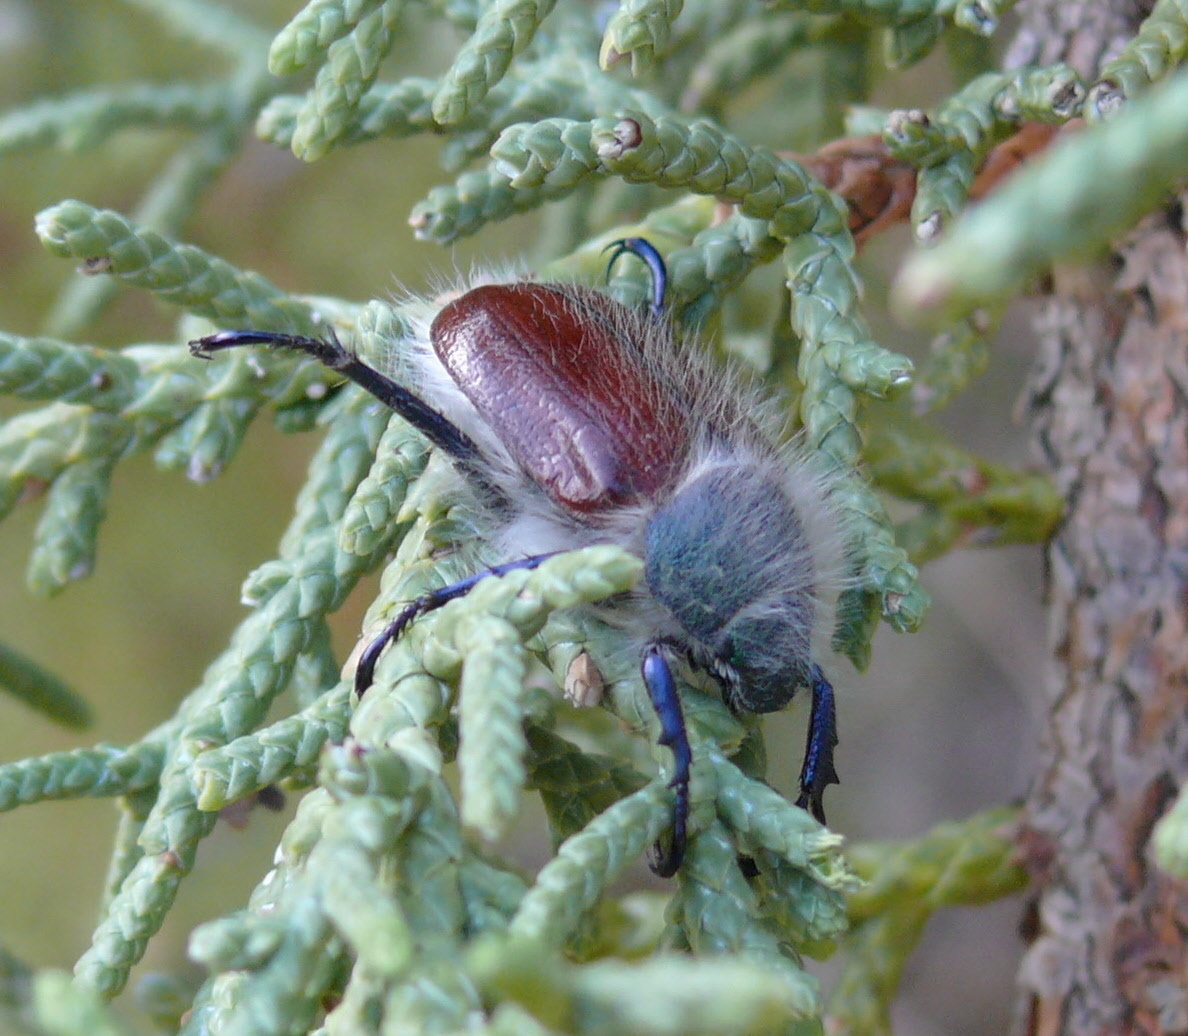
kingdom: Animalia
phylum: Arthropoda
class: Insecta
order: Coleoptera
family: Scarabaeidae
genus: Paracotalpa
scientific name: Paracotalpa granicollis
